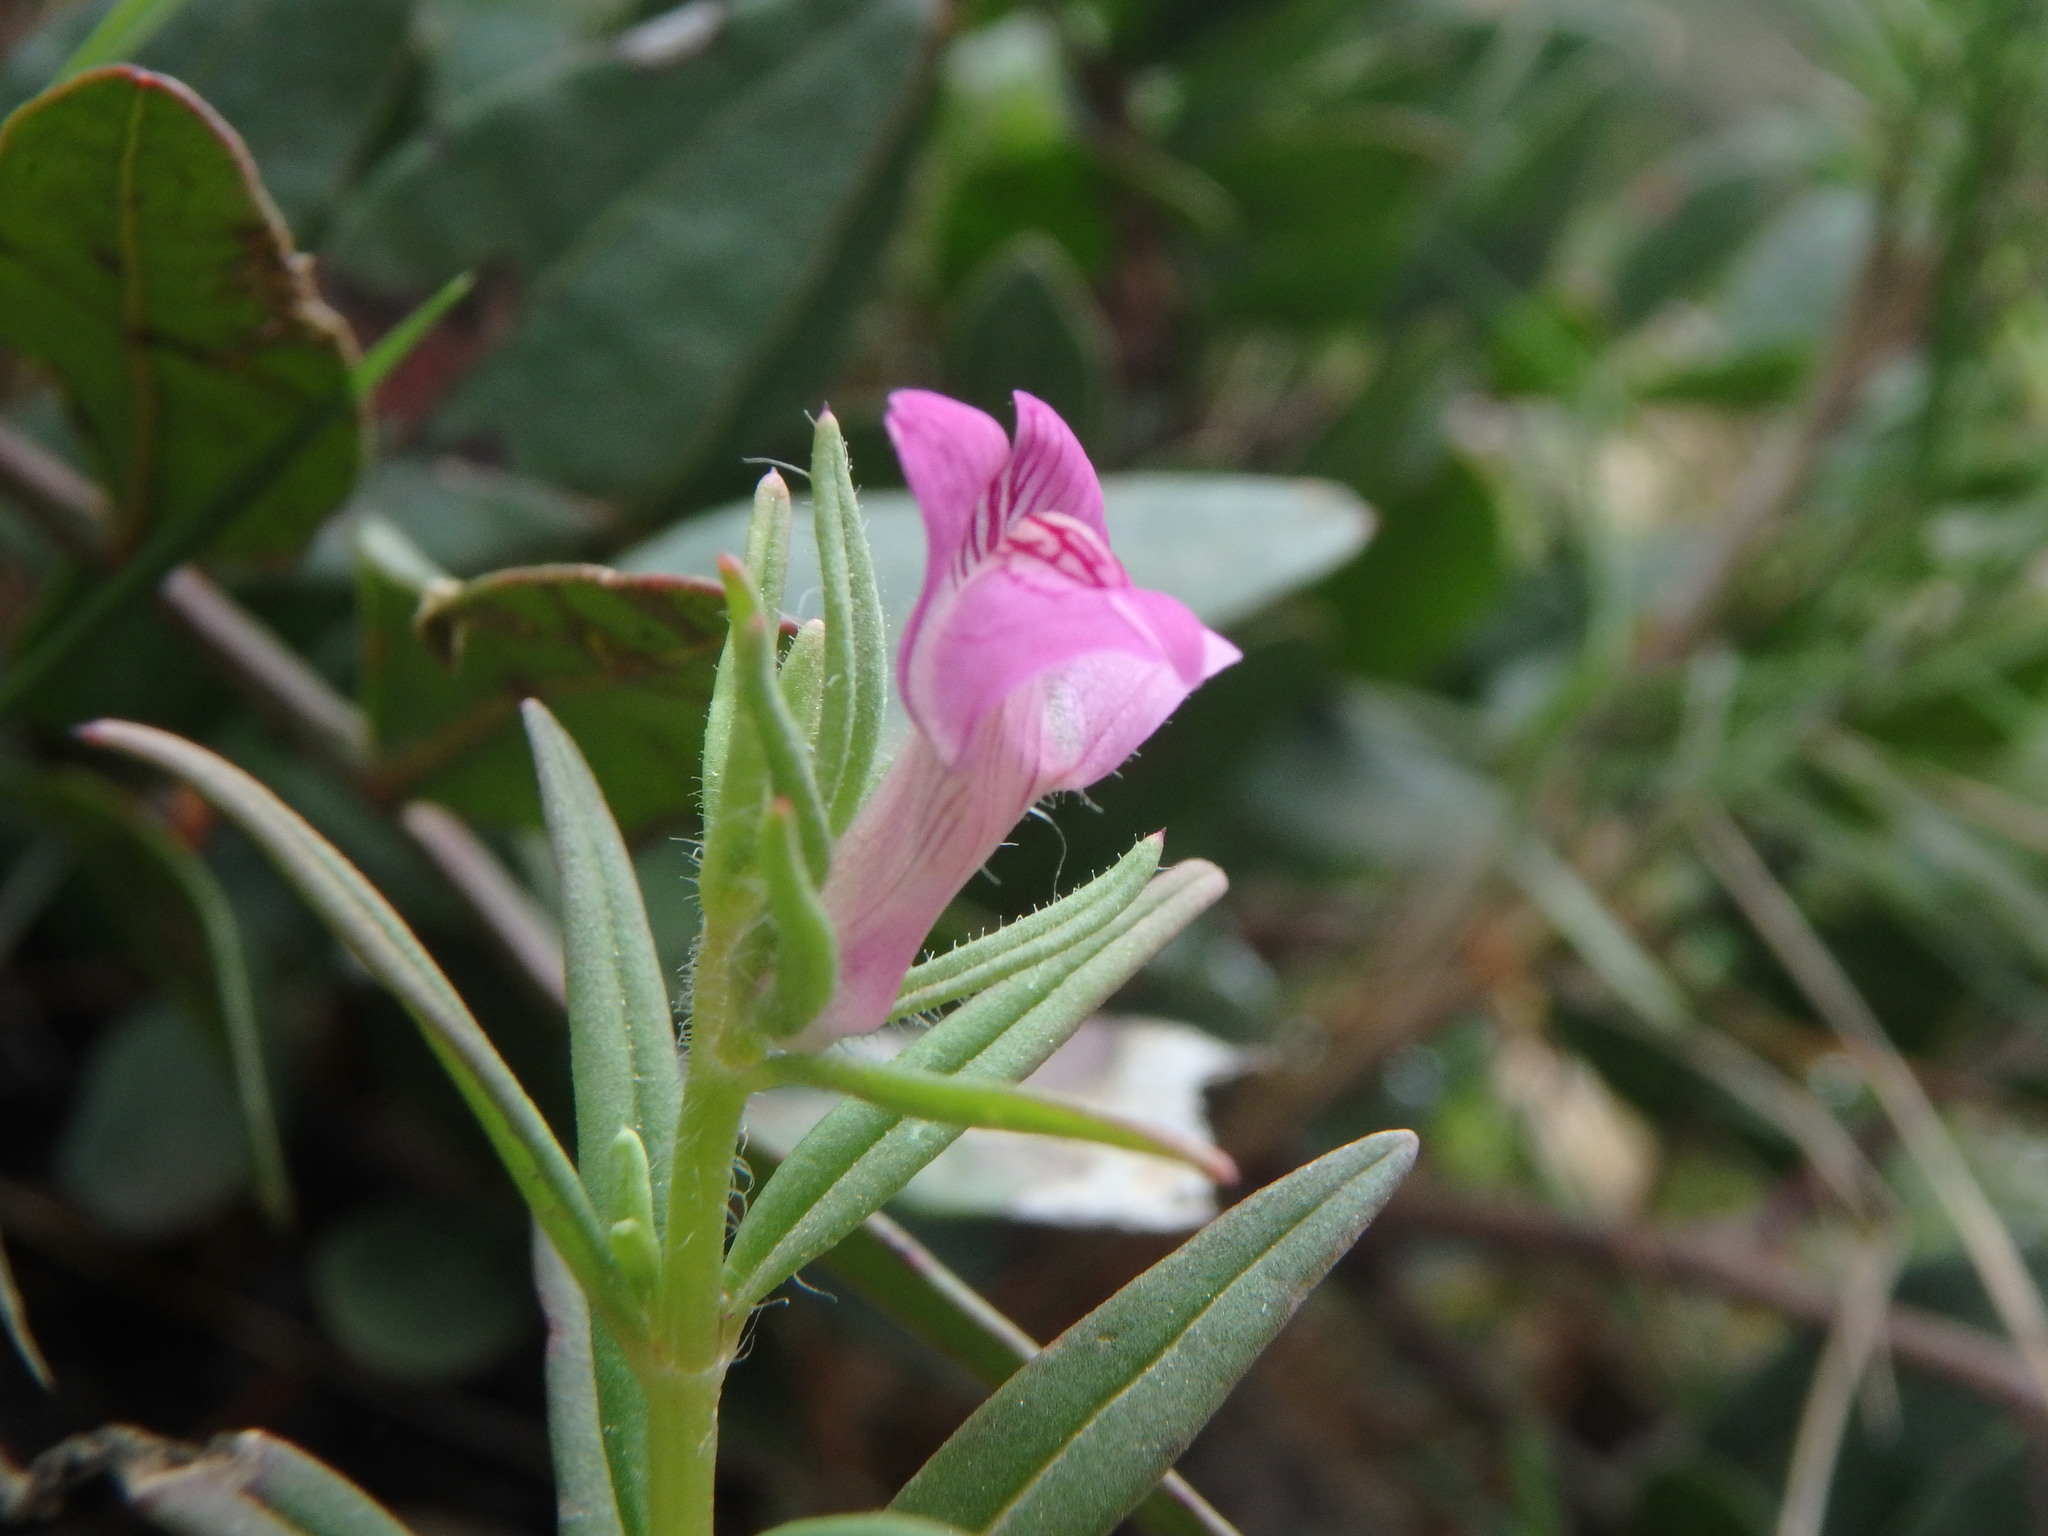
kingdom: Plantae
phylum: Tracheophyta
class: Magnoliopsida
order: Lamiales
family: Plantaginaceae
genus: Misopates
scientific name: Misopates orontium
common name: Weasel's-snout
